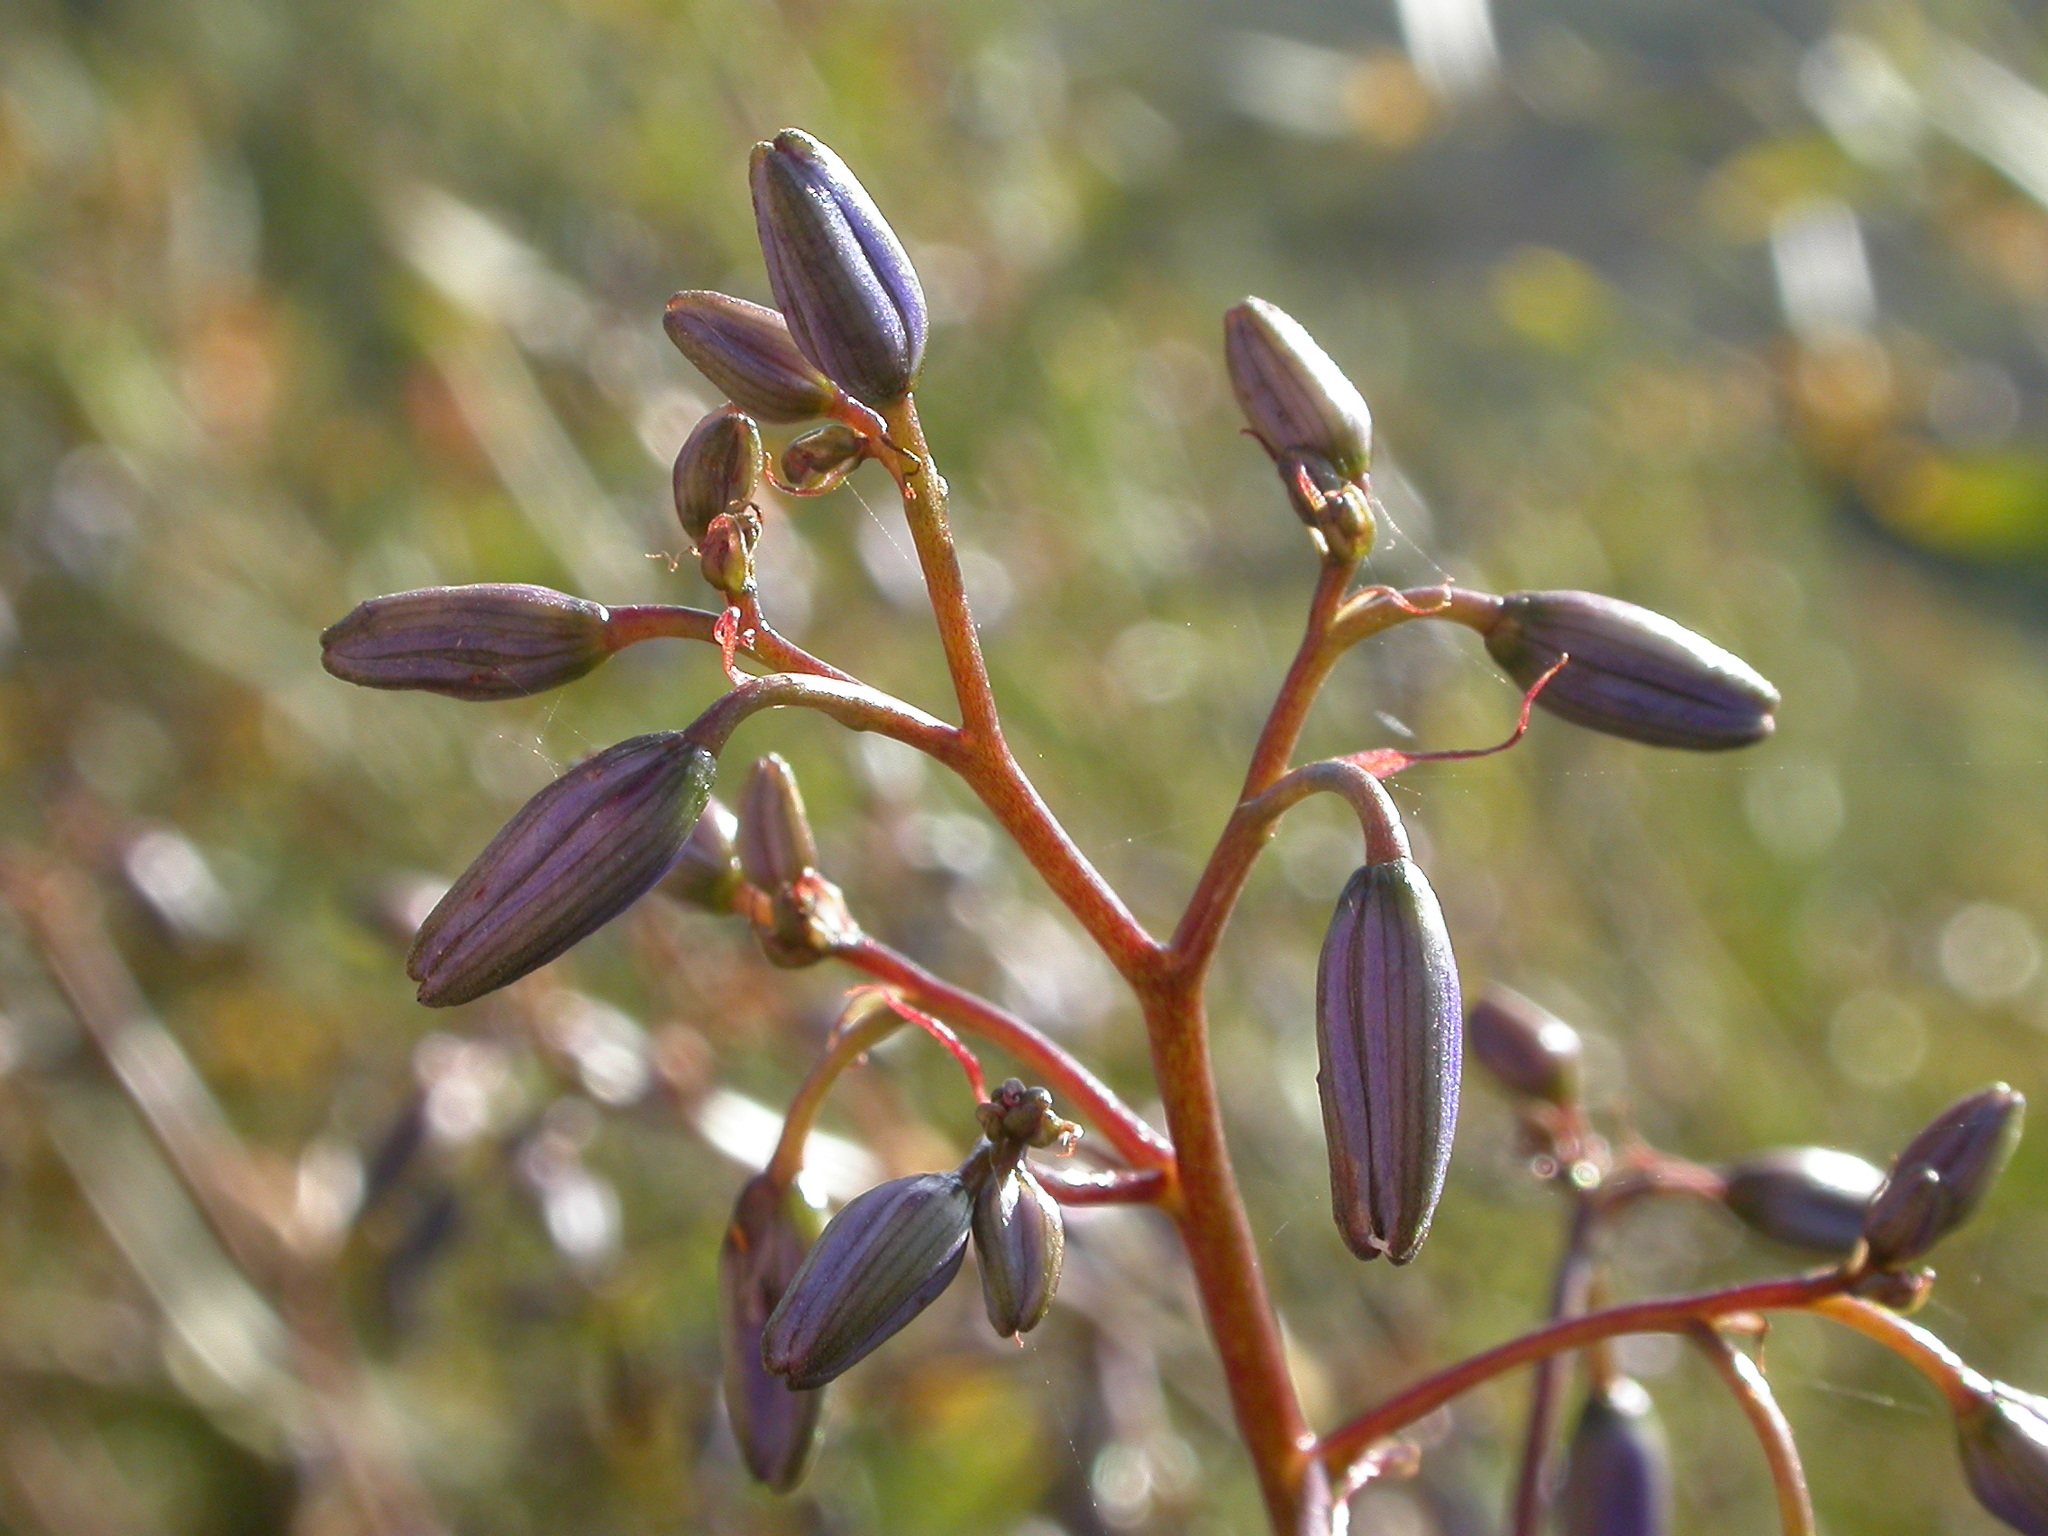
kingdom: Plantae
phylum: Tracheophyta
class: Liliopsida
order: Asparagales
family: Asphodelaceae
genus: Dianella
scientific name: Dianella
